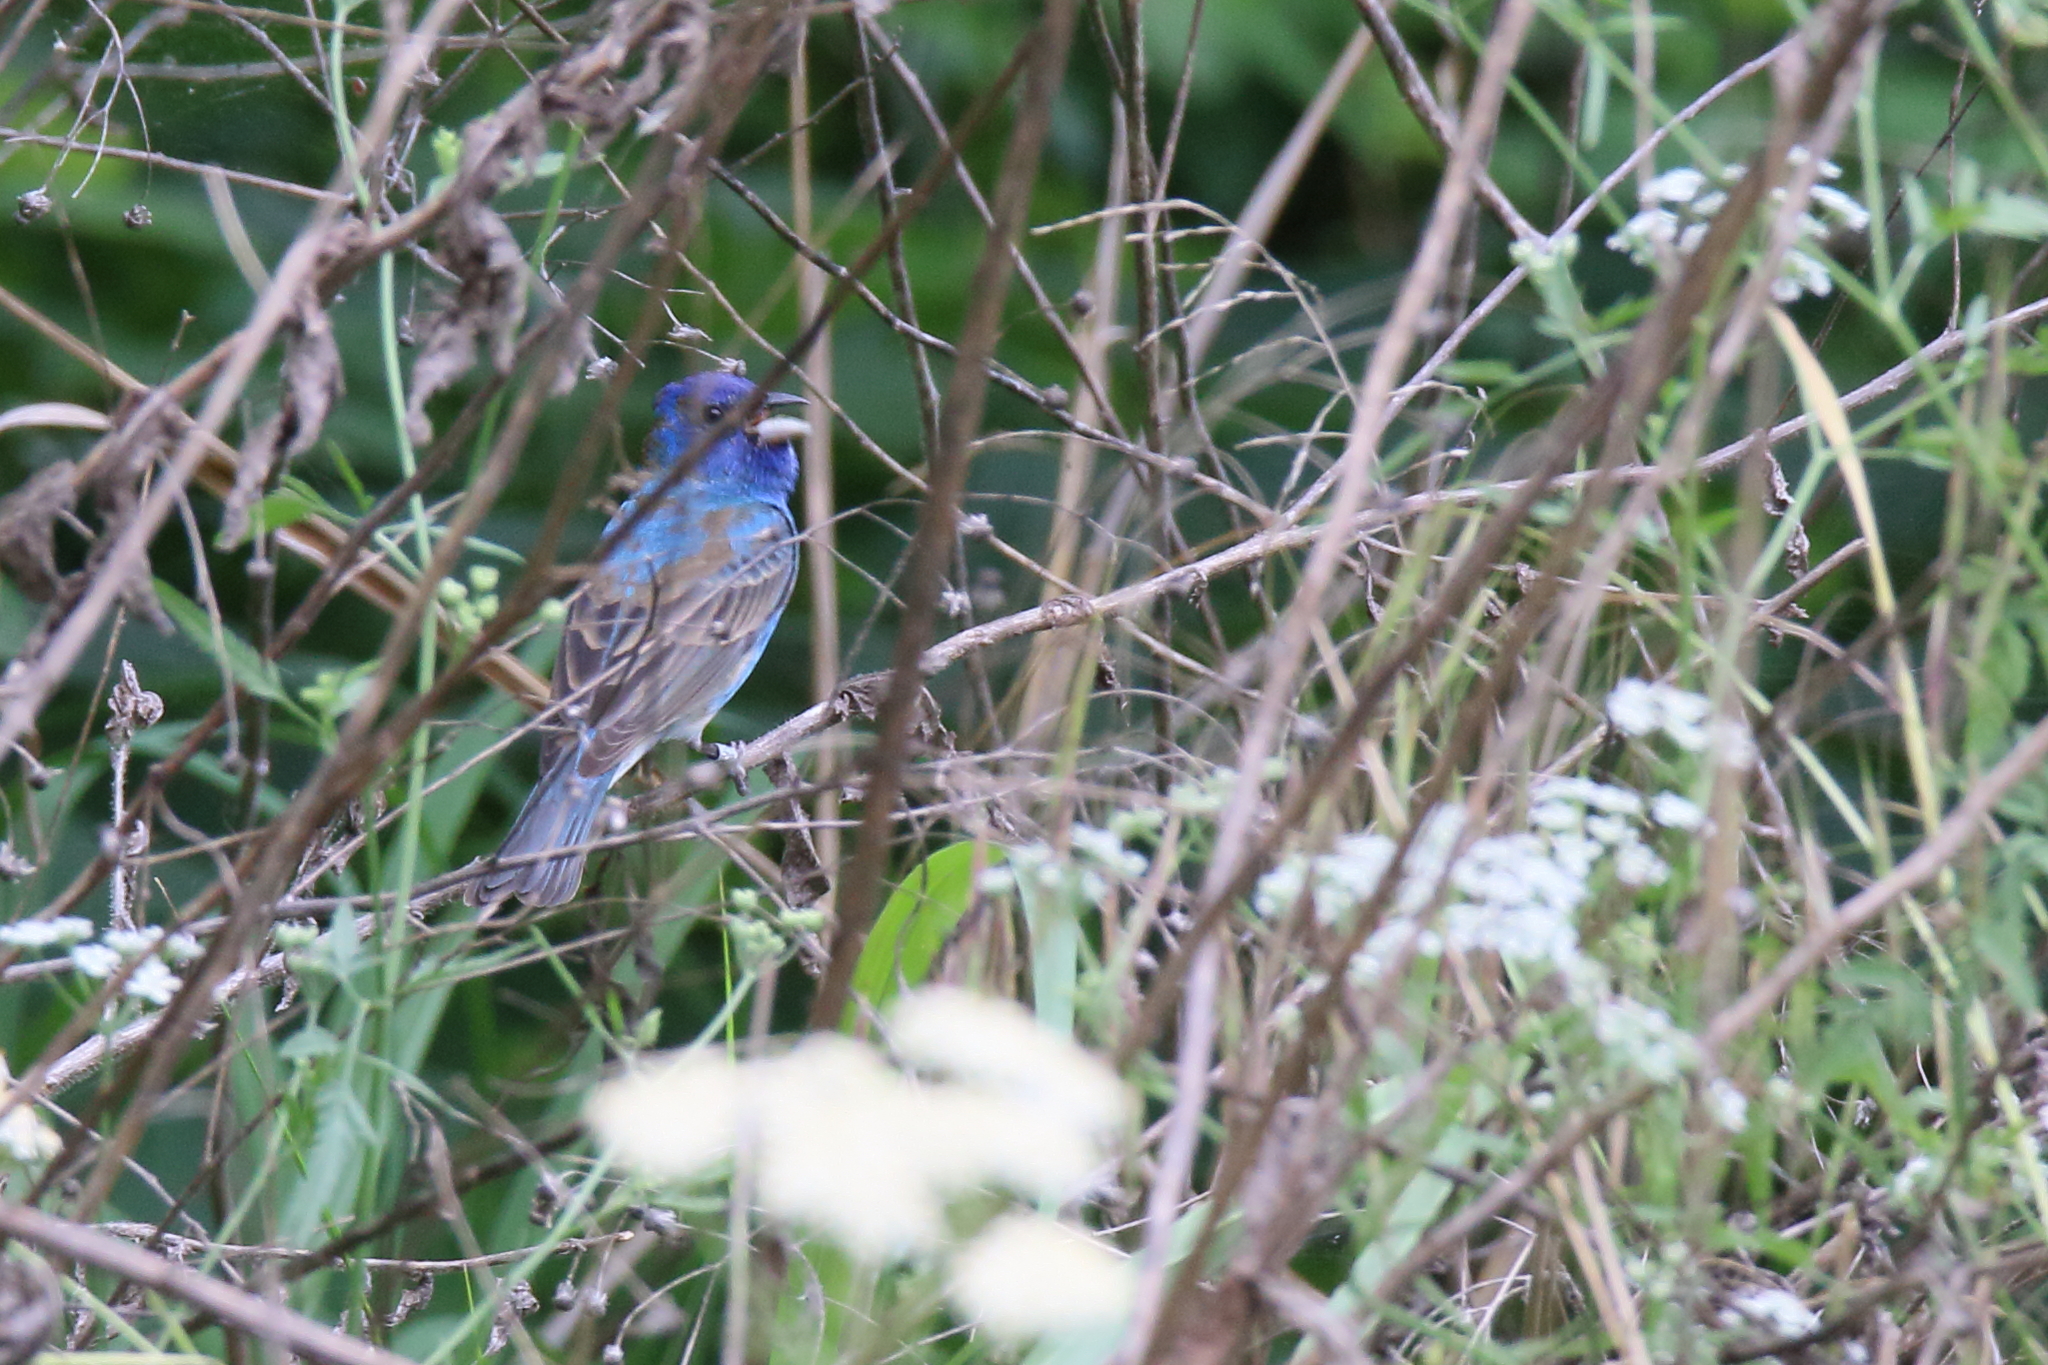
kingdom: Animalia
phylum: Chordata
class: Aves
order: Passeriformes
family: Cardinalidae
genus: Passerina
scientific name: Passerina cyanea
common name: Indigo bunting
